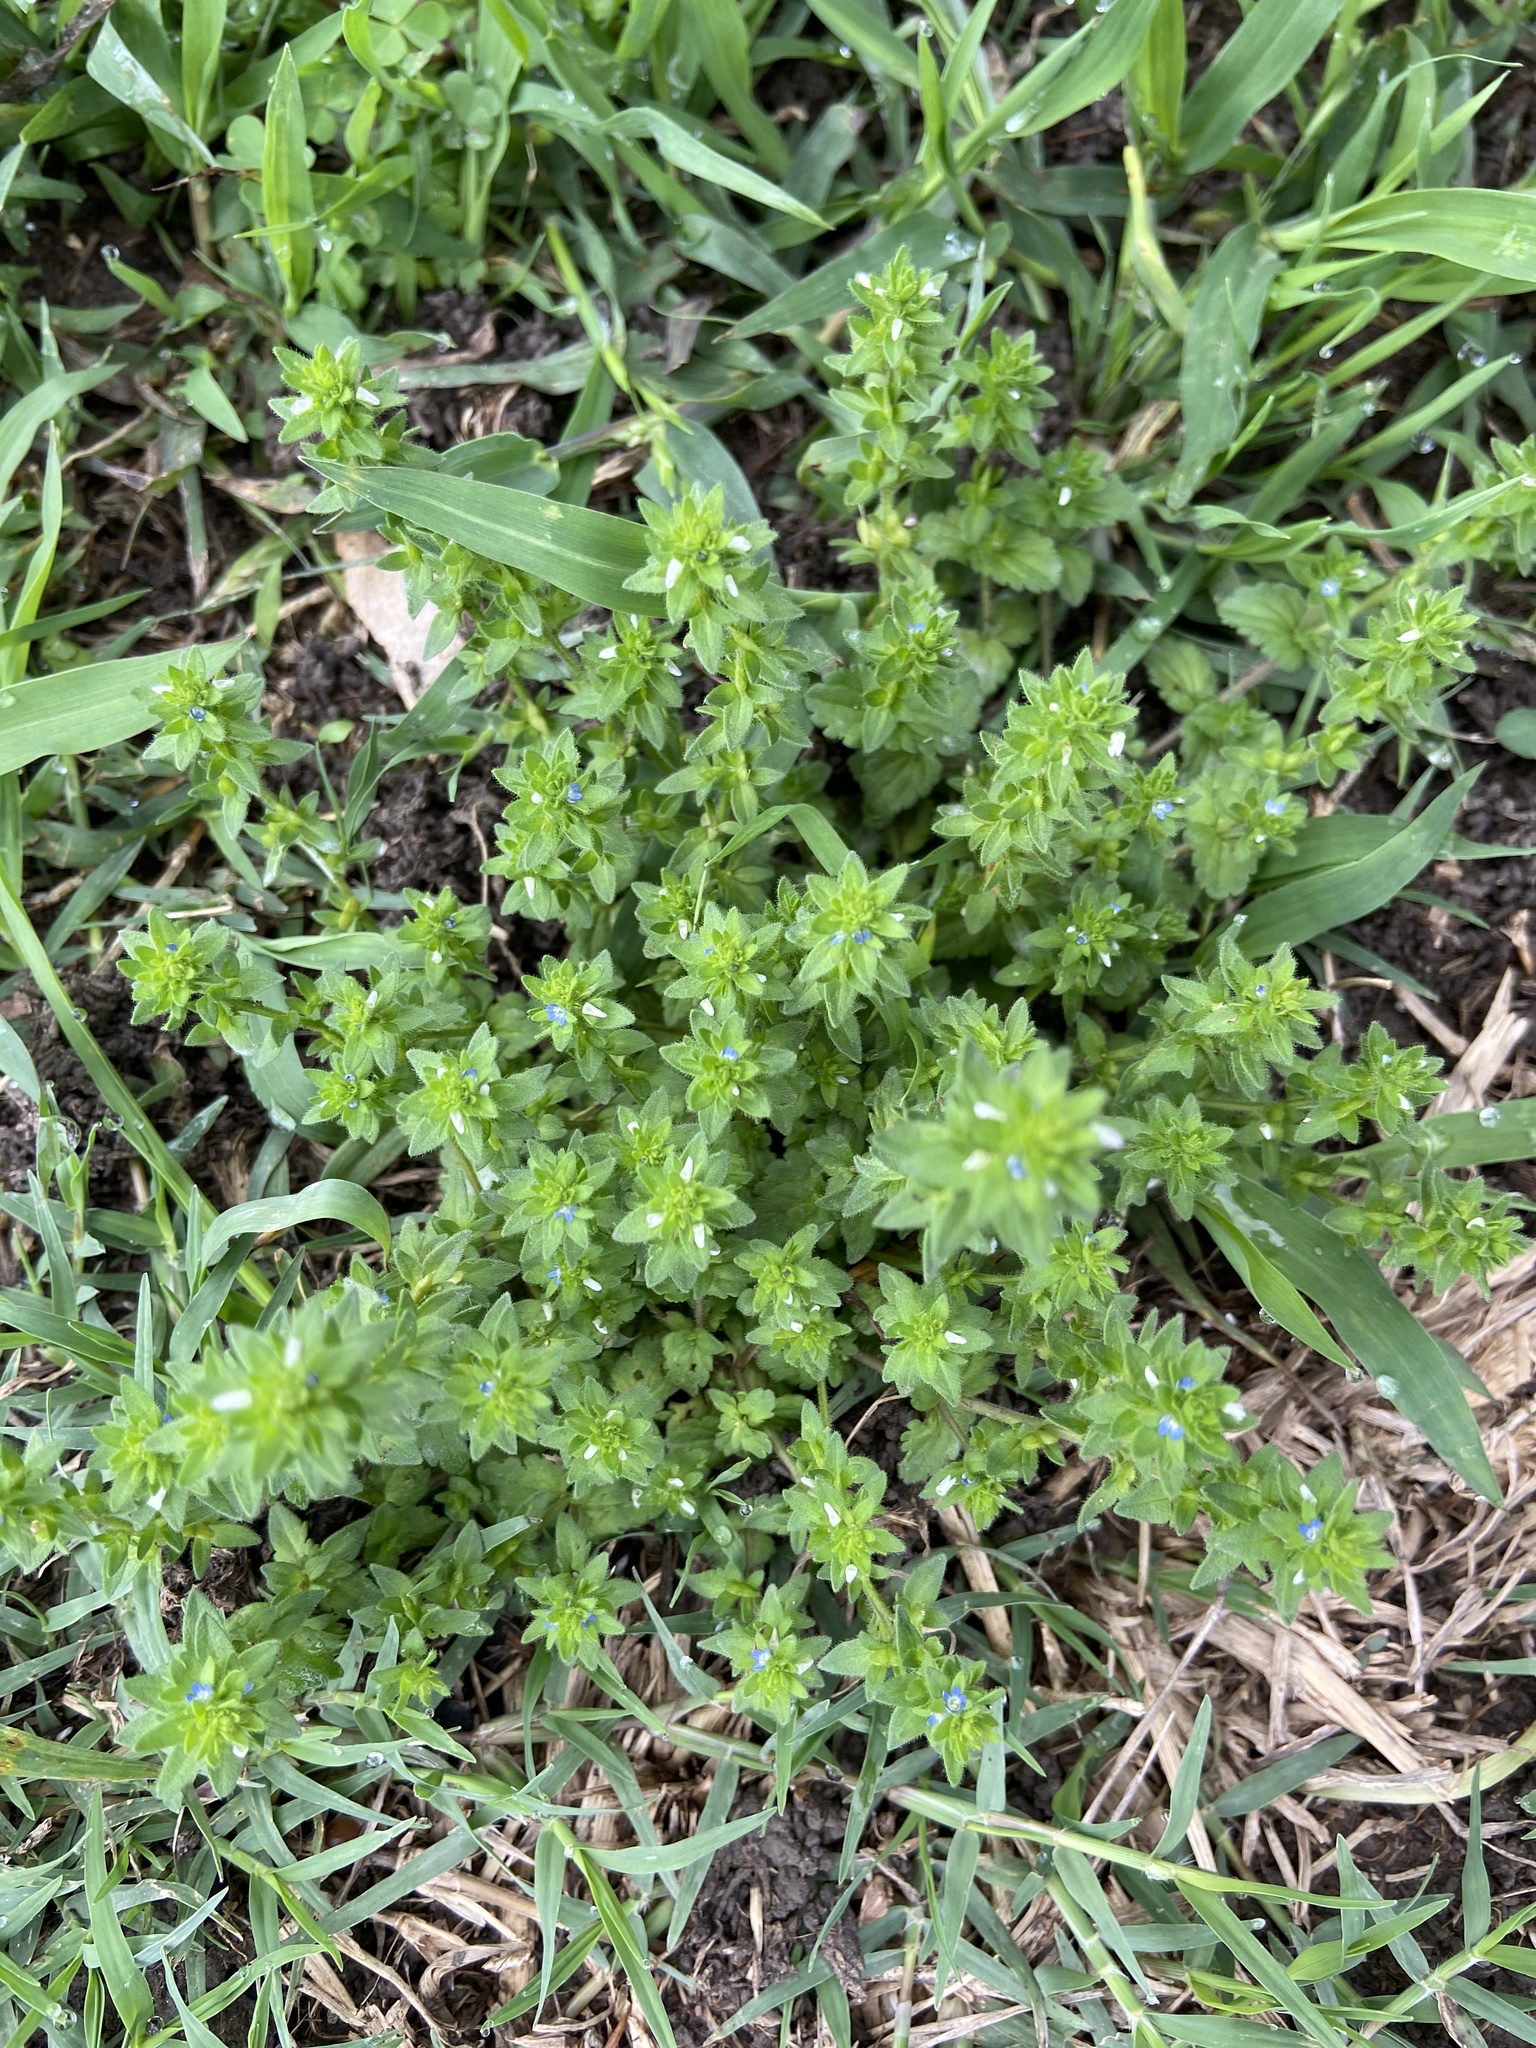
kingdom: Plantae
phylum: Tracheophyta
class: Magnoliopsida
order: Lamiales
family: Plantaginaceae
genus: Veronica
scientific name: Veronica arvensis
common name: Corn speedwell
